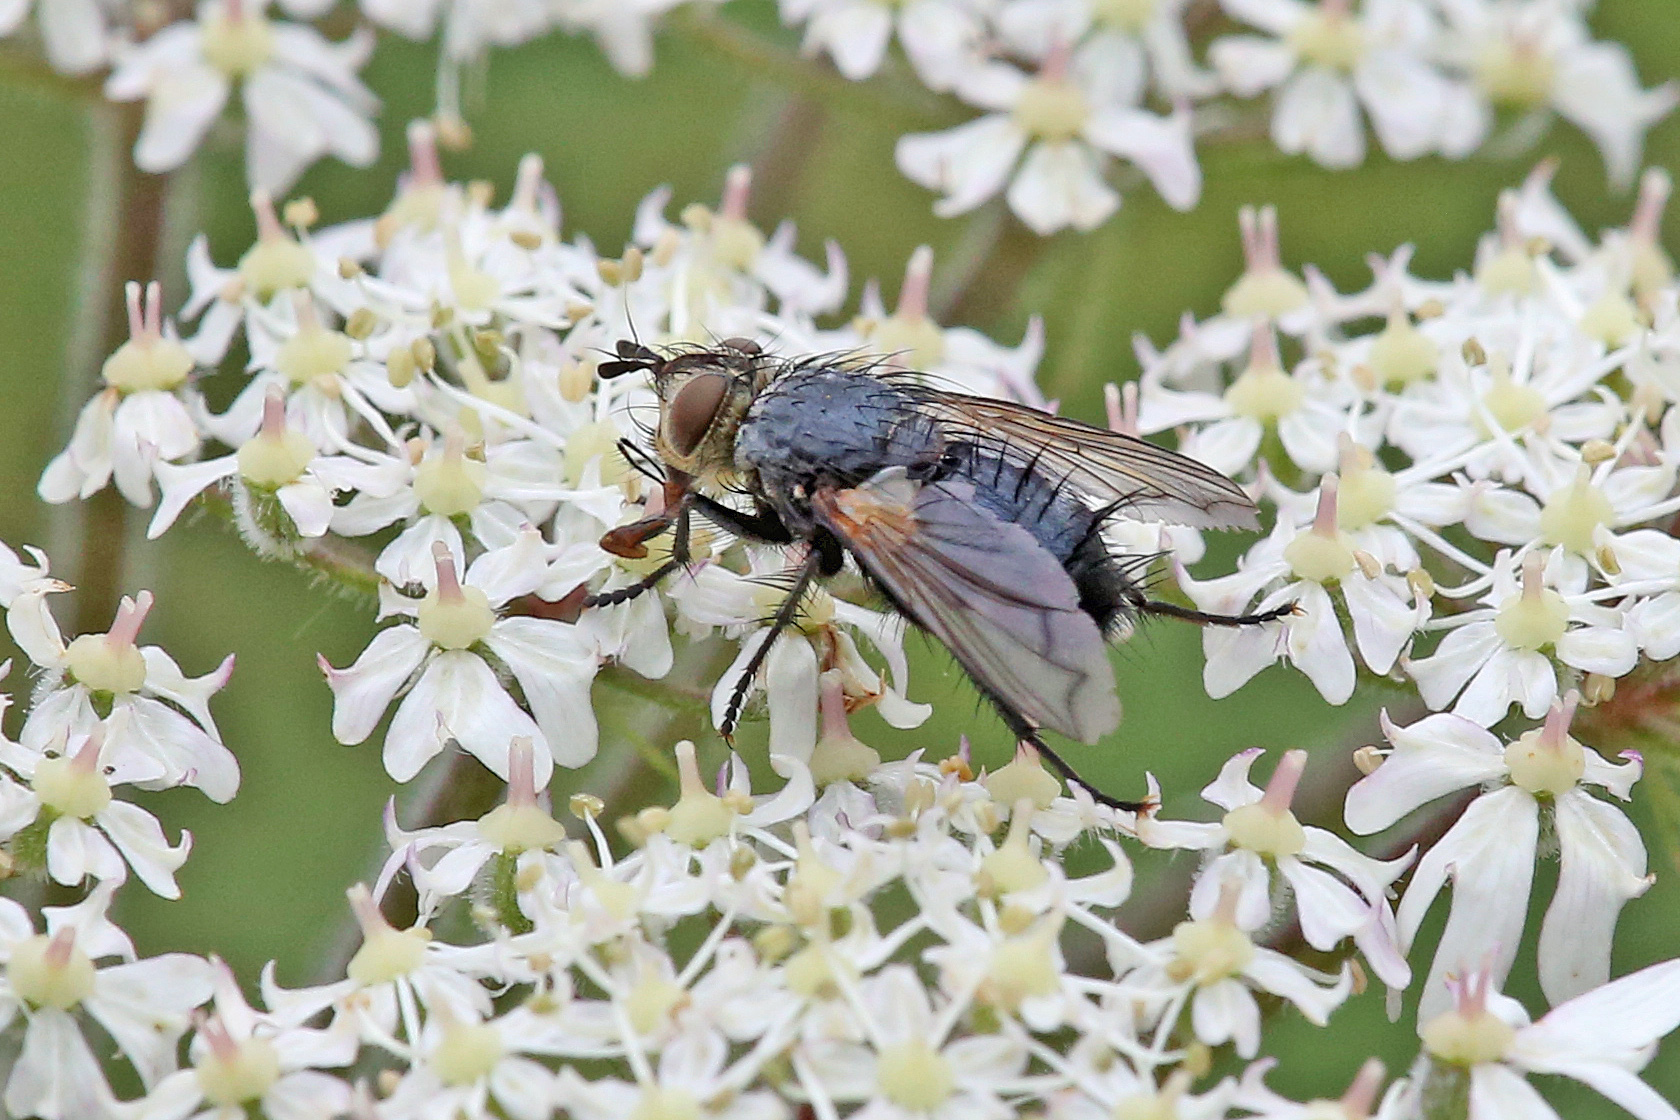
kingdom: Animalia
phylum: Arthropoda
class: Insecta
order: Diptera
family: Tachinidae
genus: Eurithia
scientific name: Eurithia anthophila
